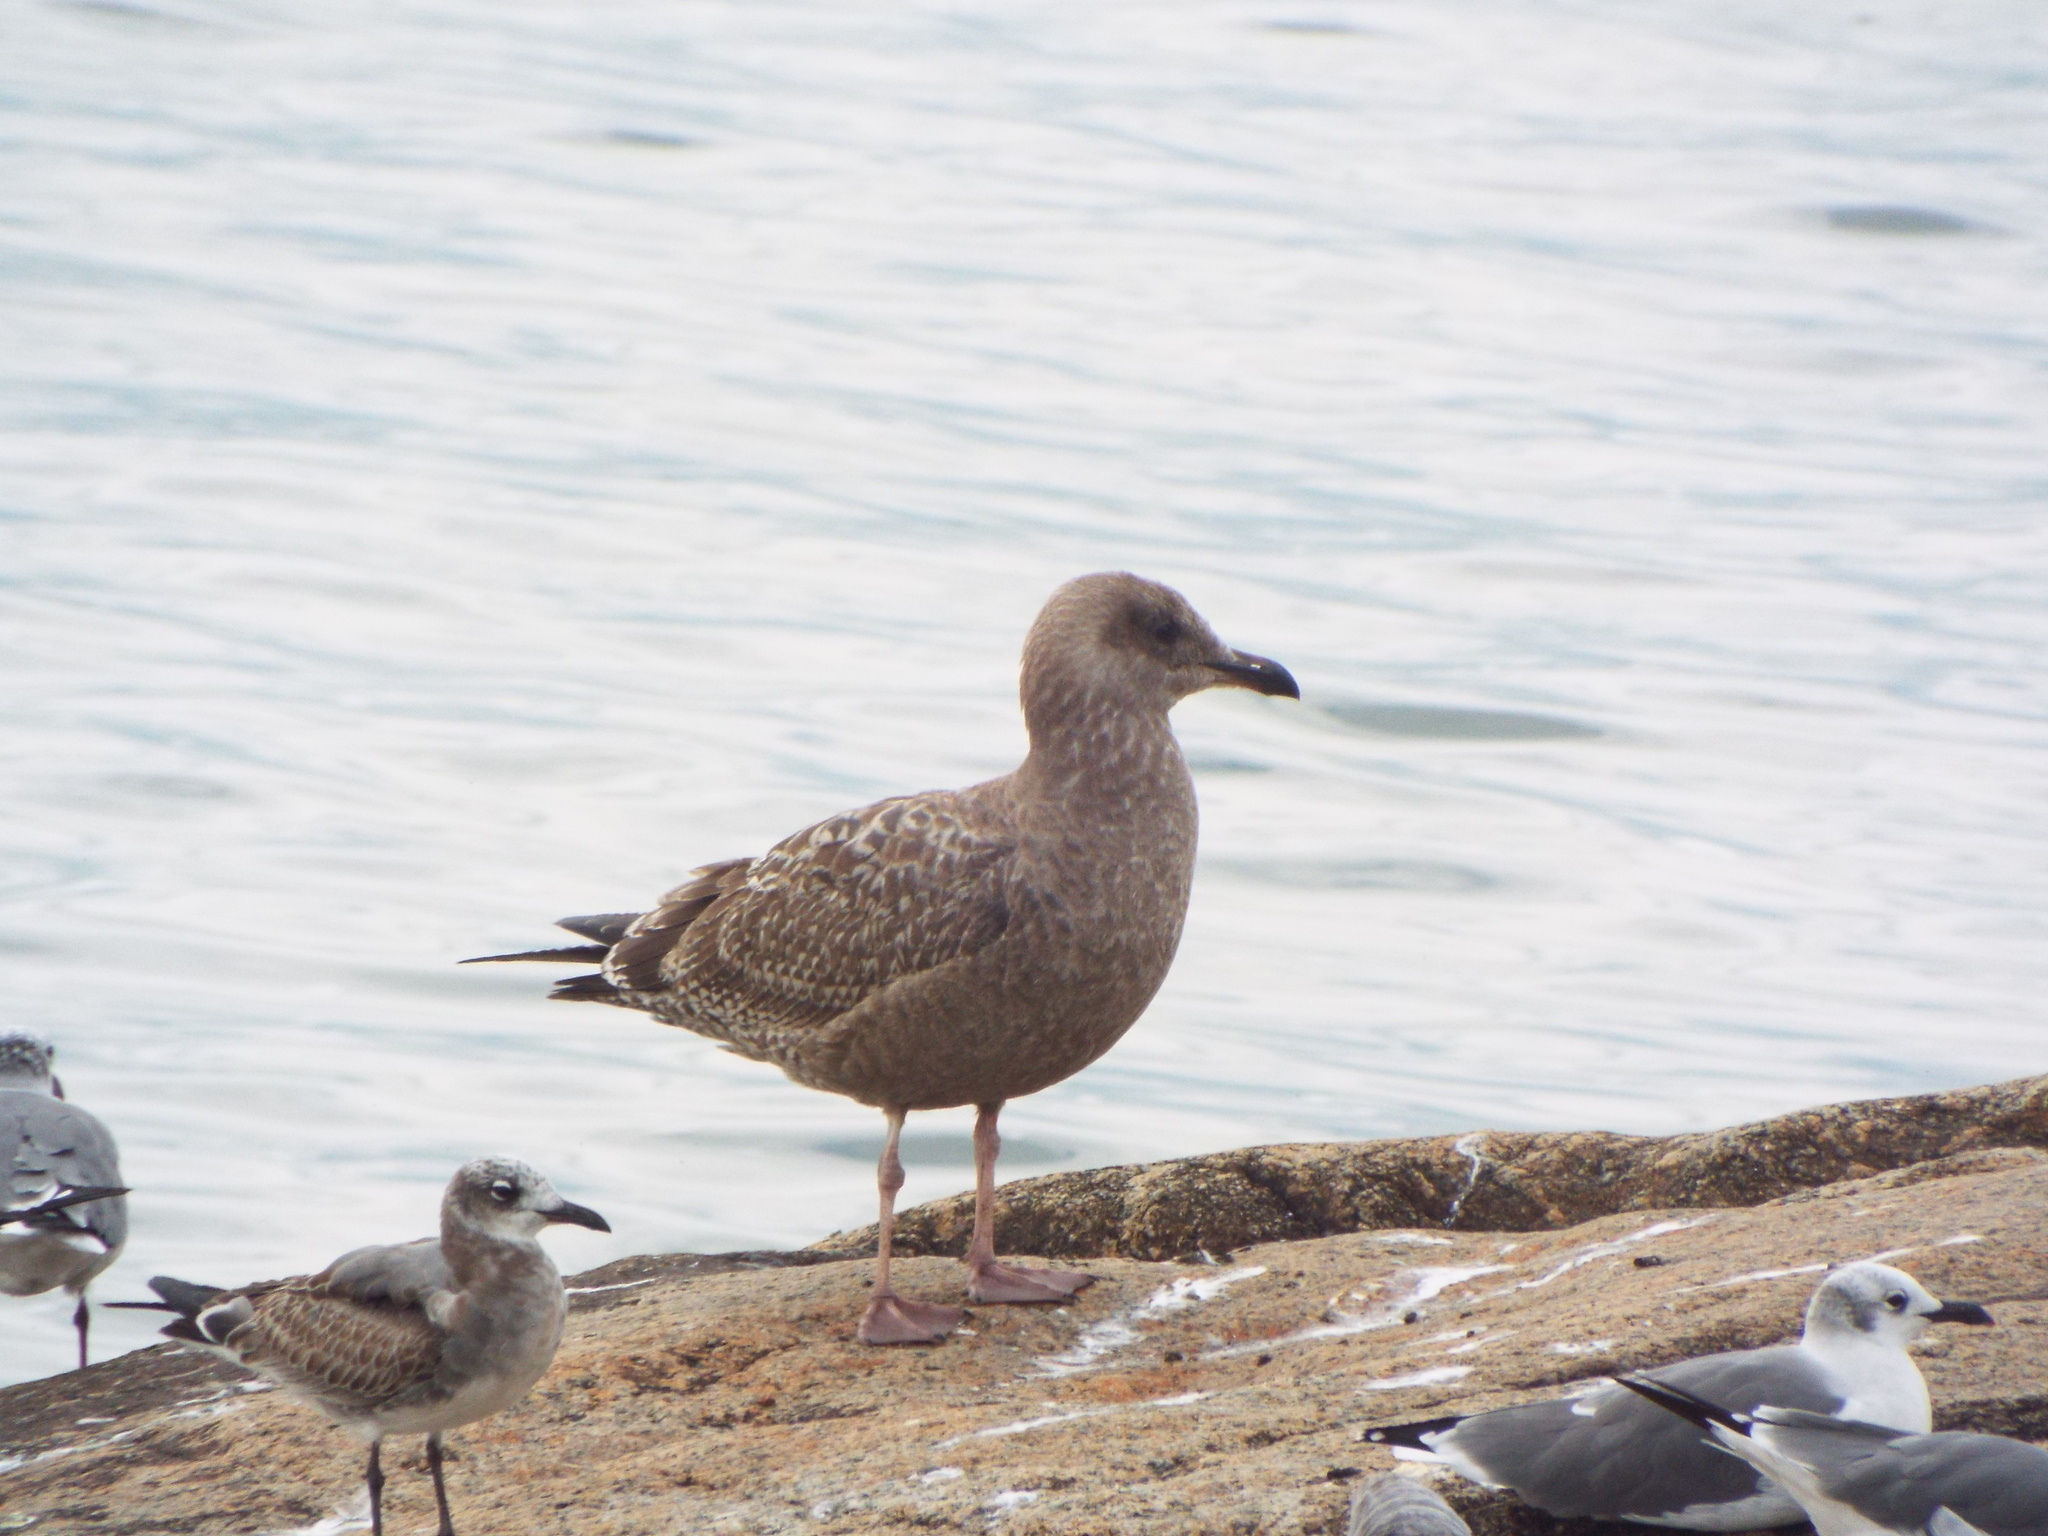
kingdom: Animalia
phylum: Chordata
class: Aves
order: Charadriiformes
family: Laridae
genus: Larus
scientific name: Larus argentatus
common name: Herring gull
